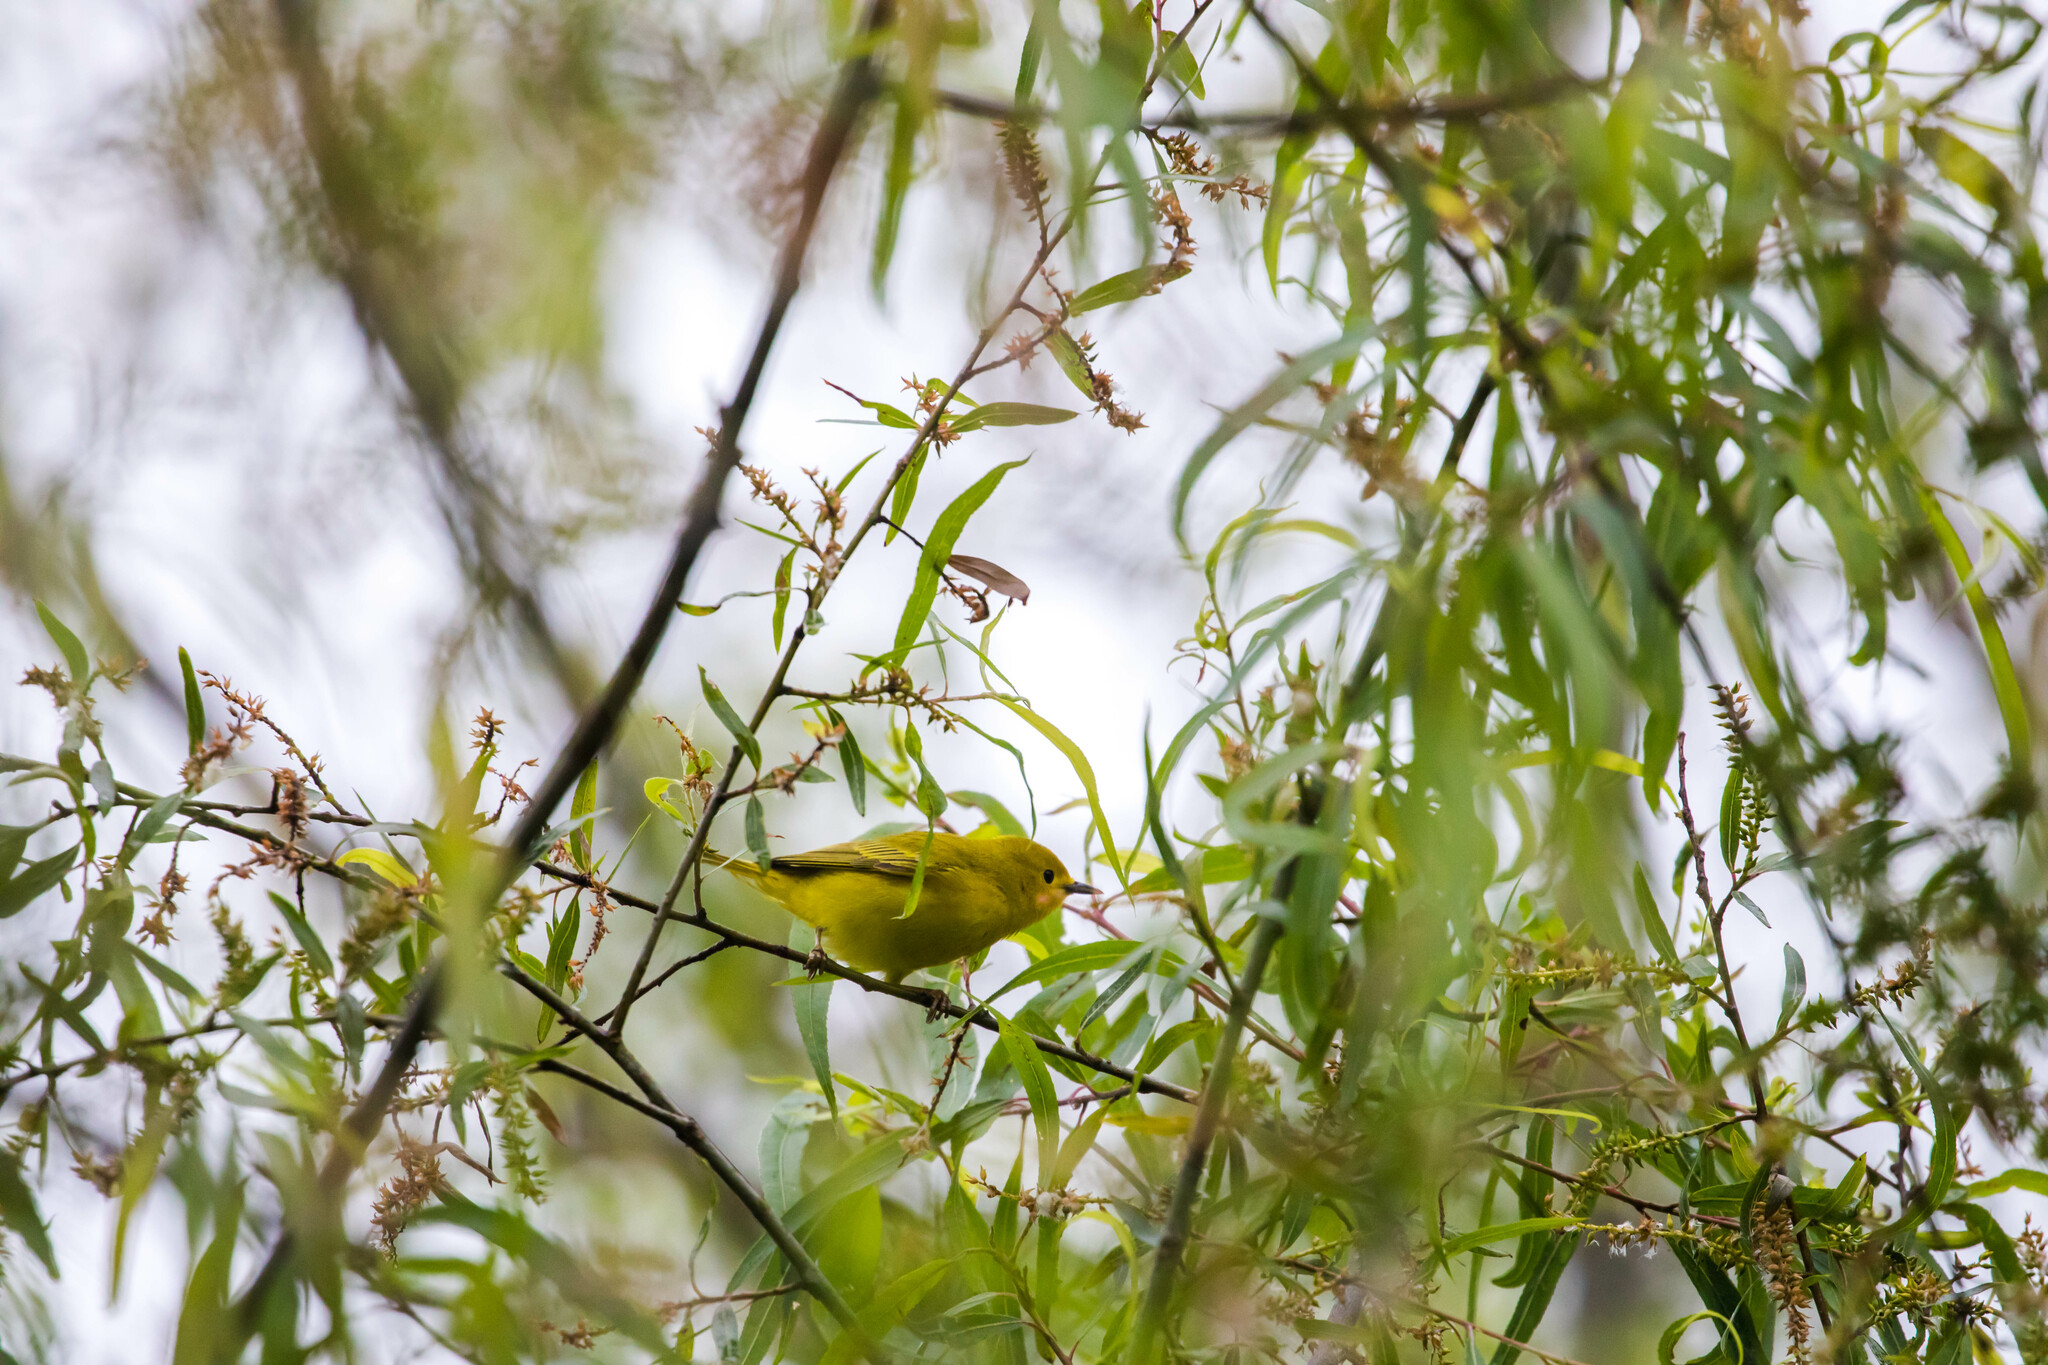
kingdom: Animalia
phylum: Chordata
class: Aves
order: Passeriformes
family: Parulidae
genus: Setophaga
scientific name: Setophaga petechia
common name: Yellow warbler
